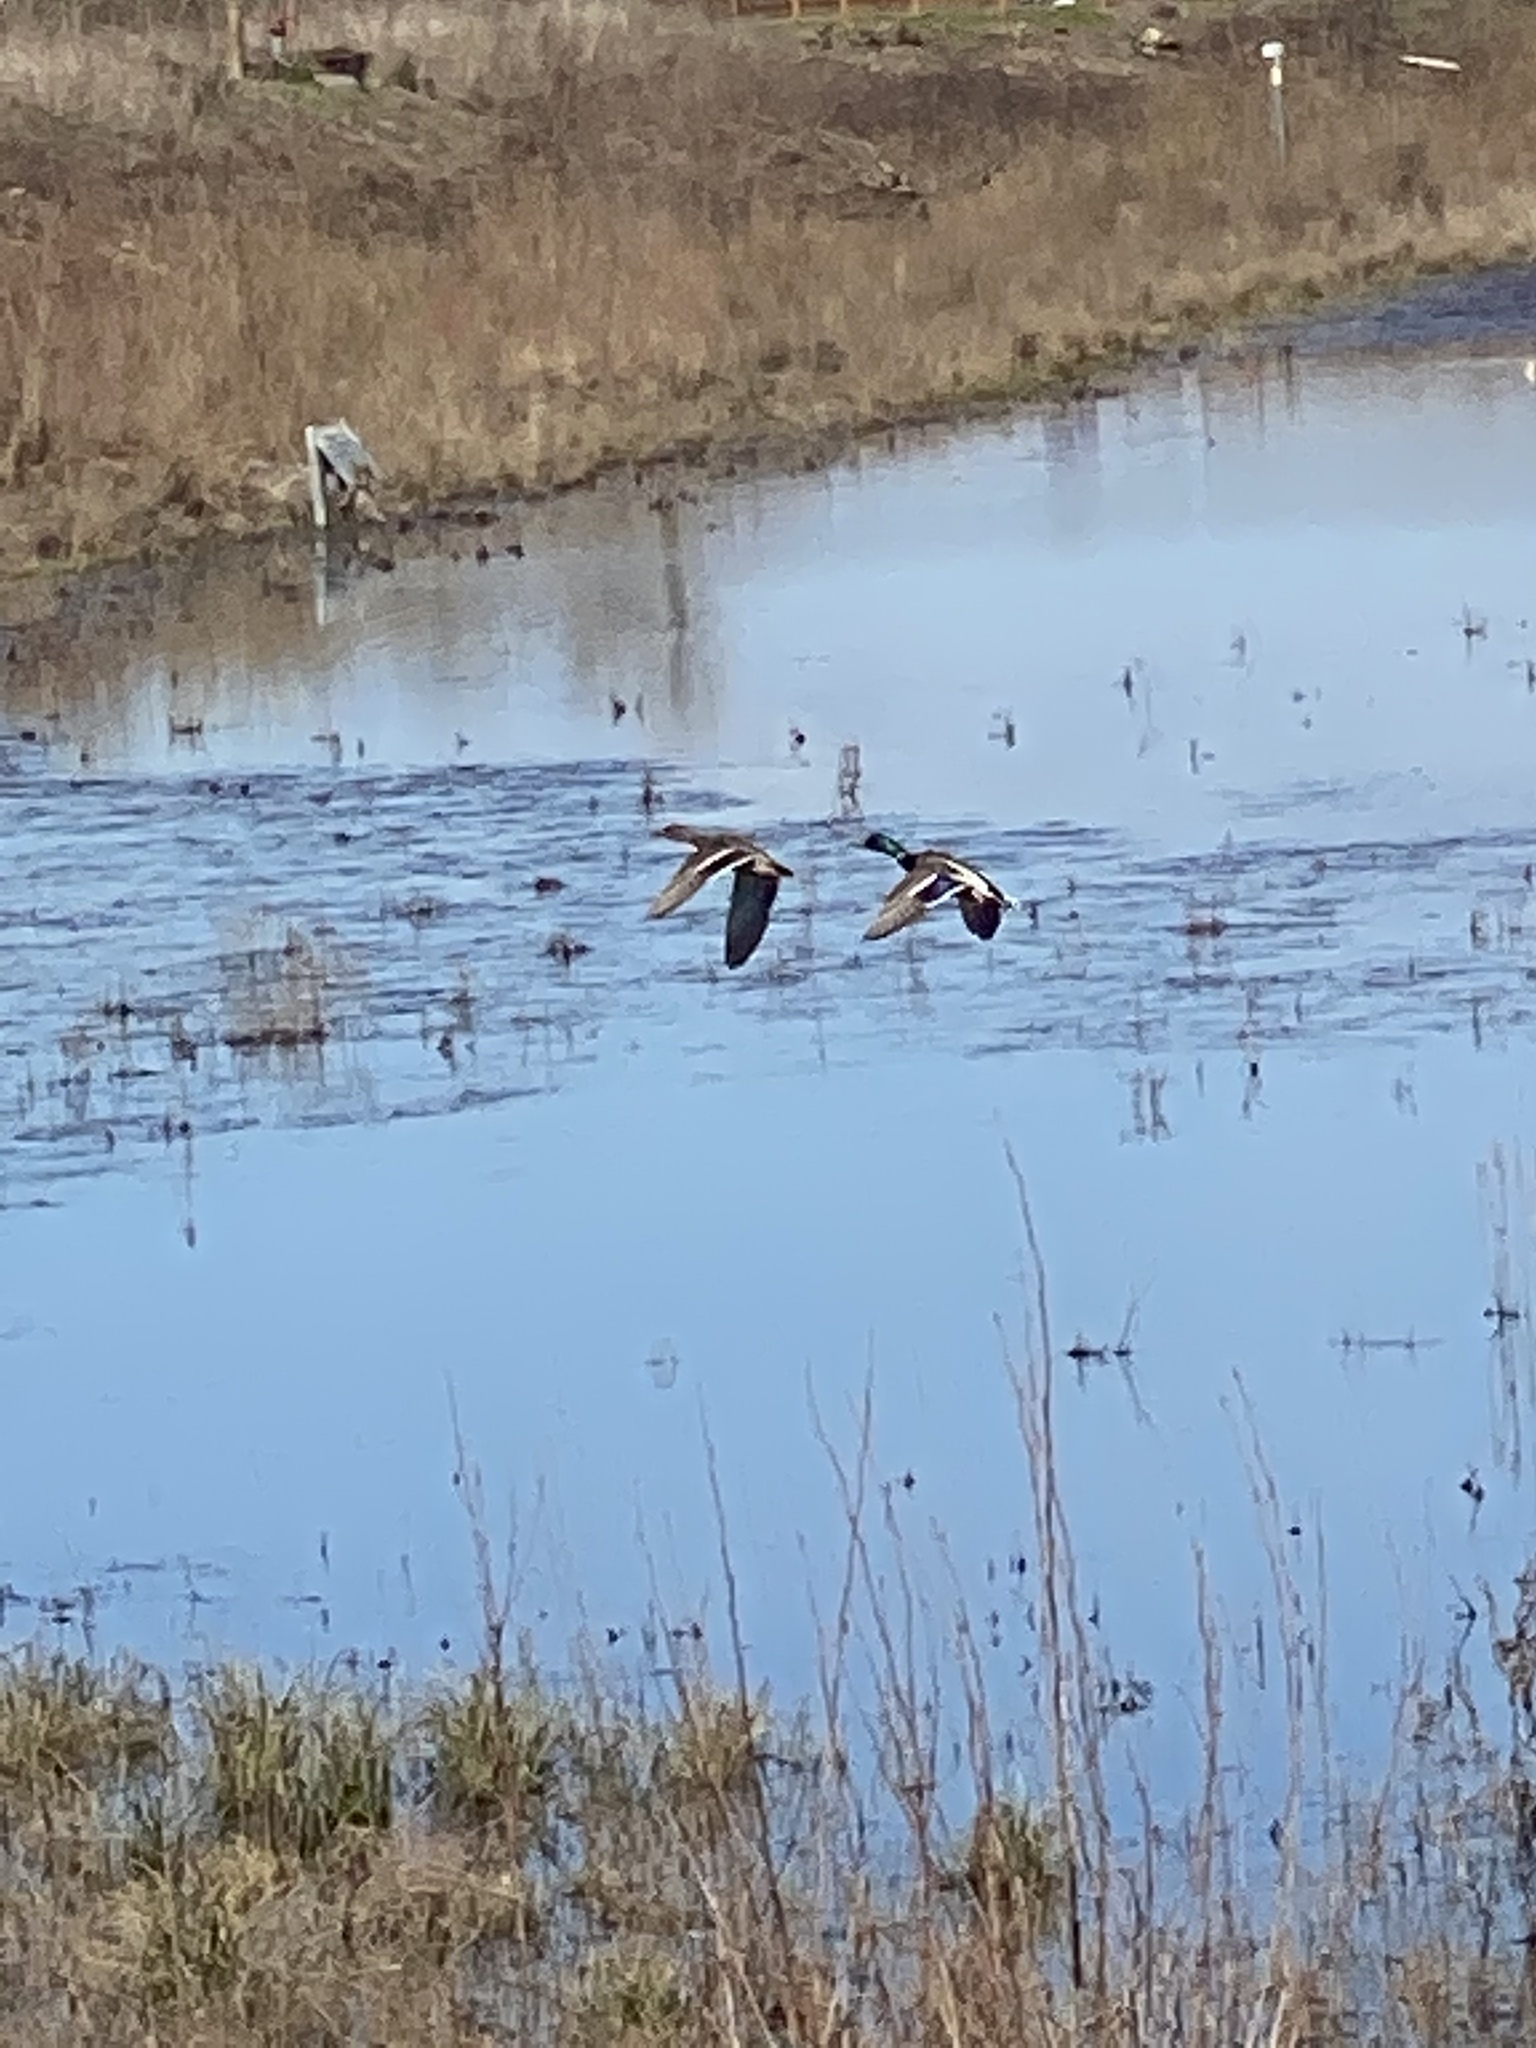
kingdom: Animalia
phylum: Chordata
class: Aves
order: Anseriformes
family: Anatidae
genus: Anas
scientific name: Anas platyrhynchos
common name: Mallard
